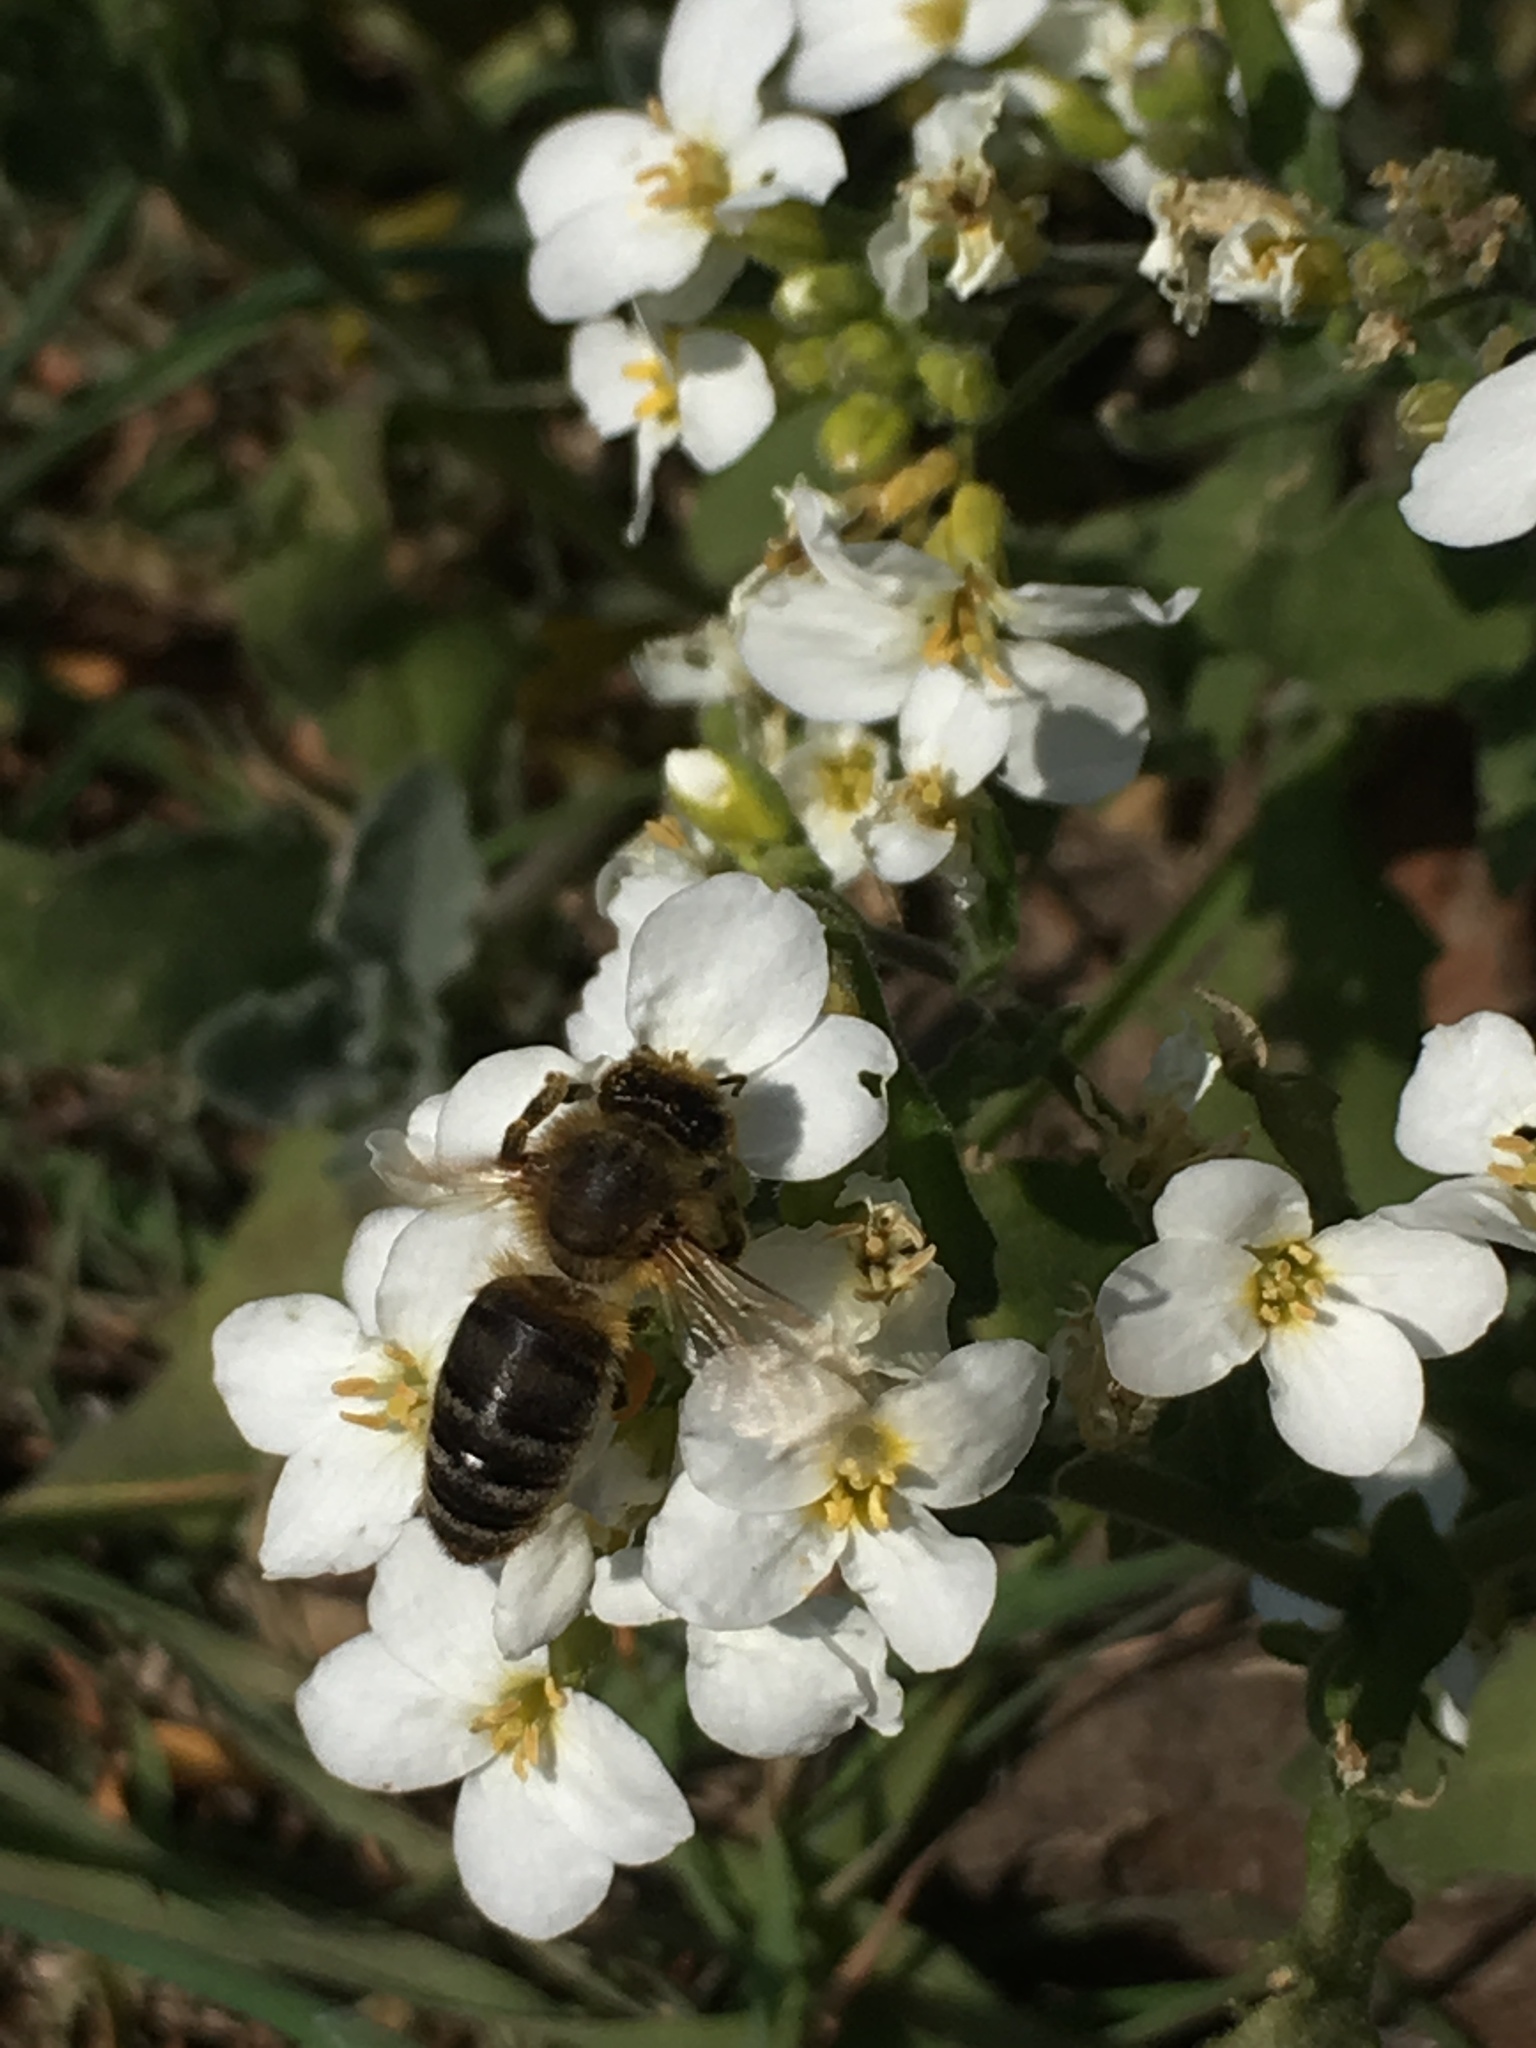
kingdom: Animalia
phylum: Arthropoda
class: Insecta
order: Hymenoptera
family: Apidae
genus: Apis
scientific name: Apis mellifera
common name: Honey bee
